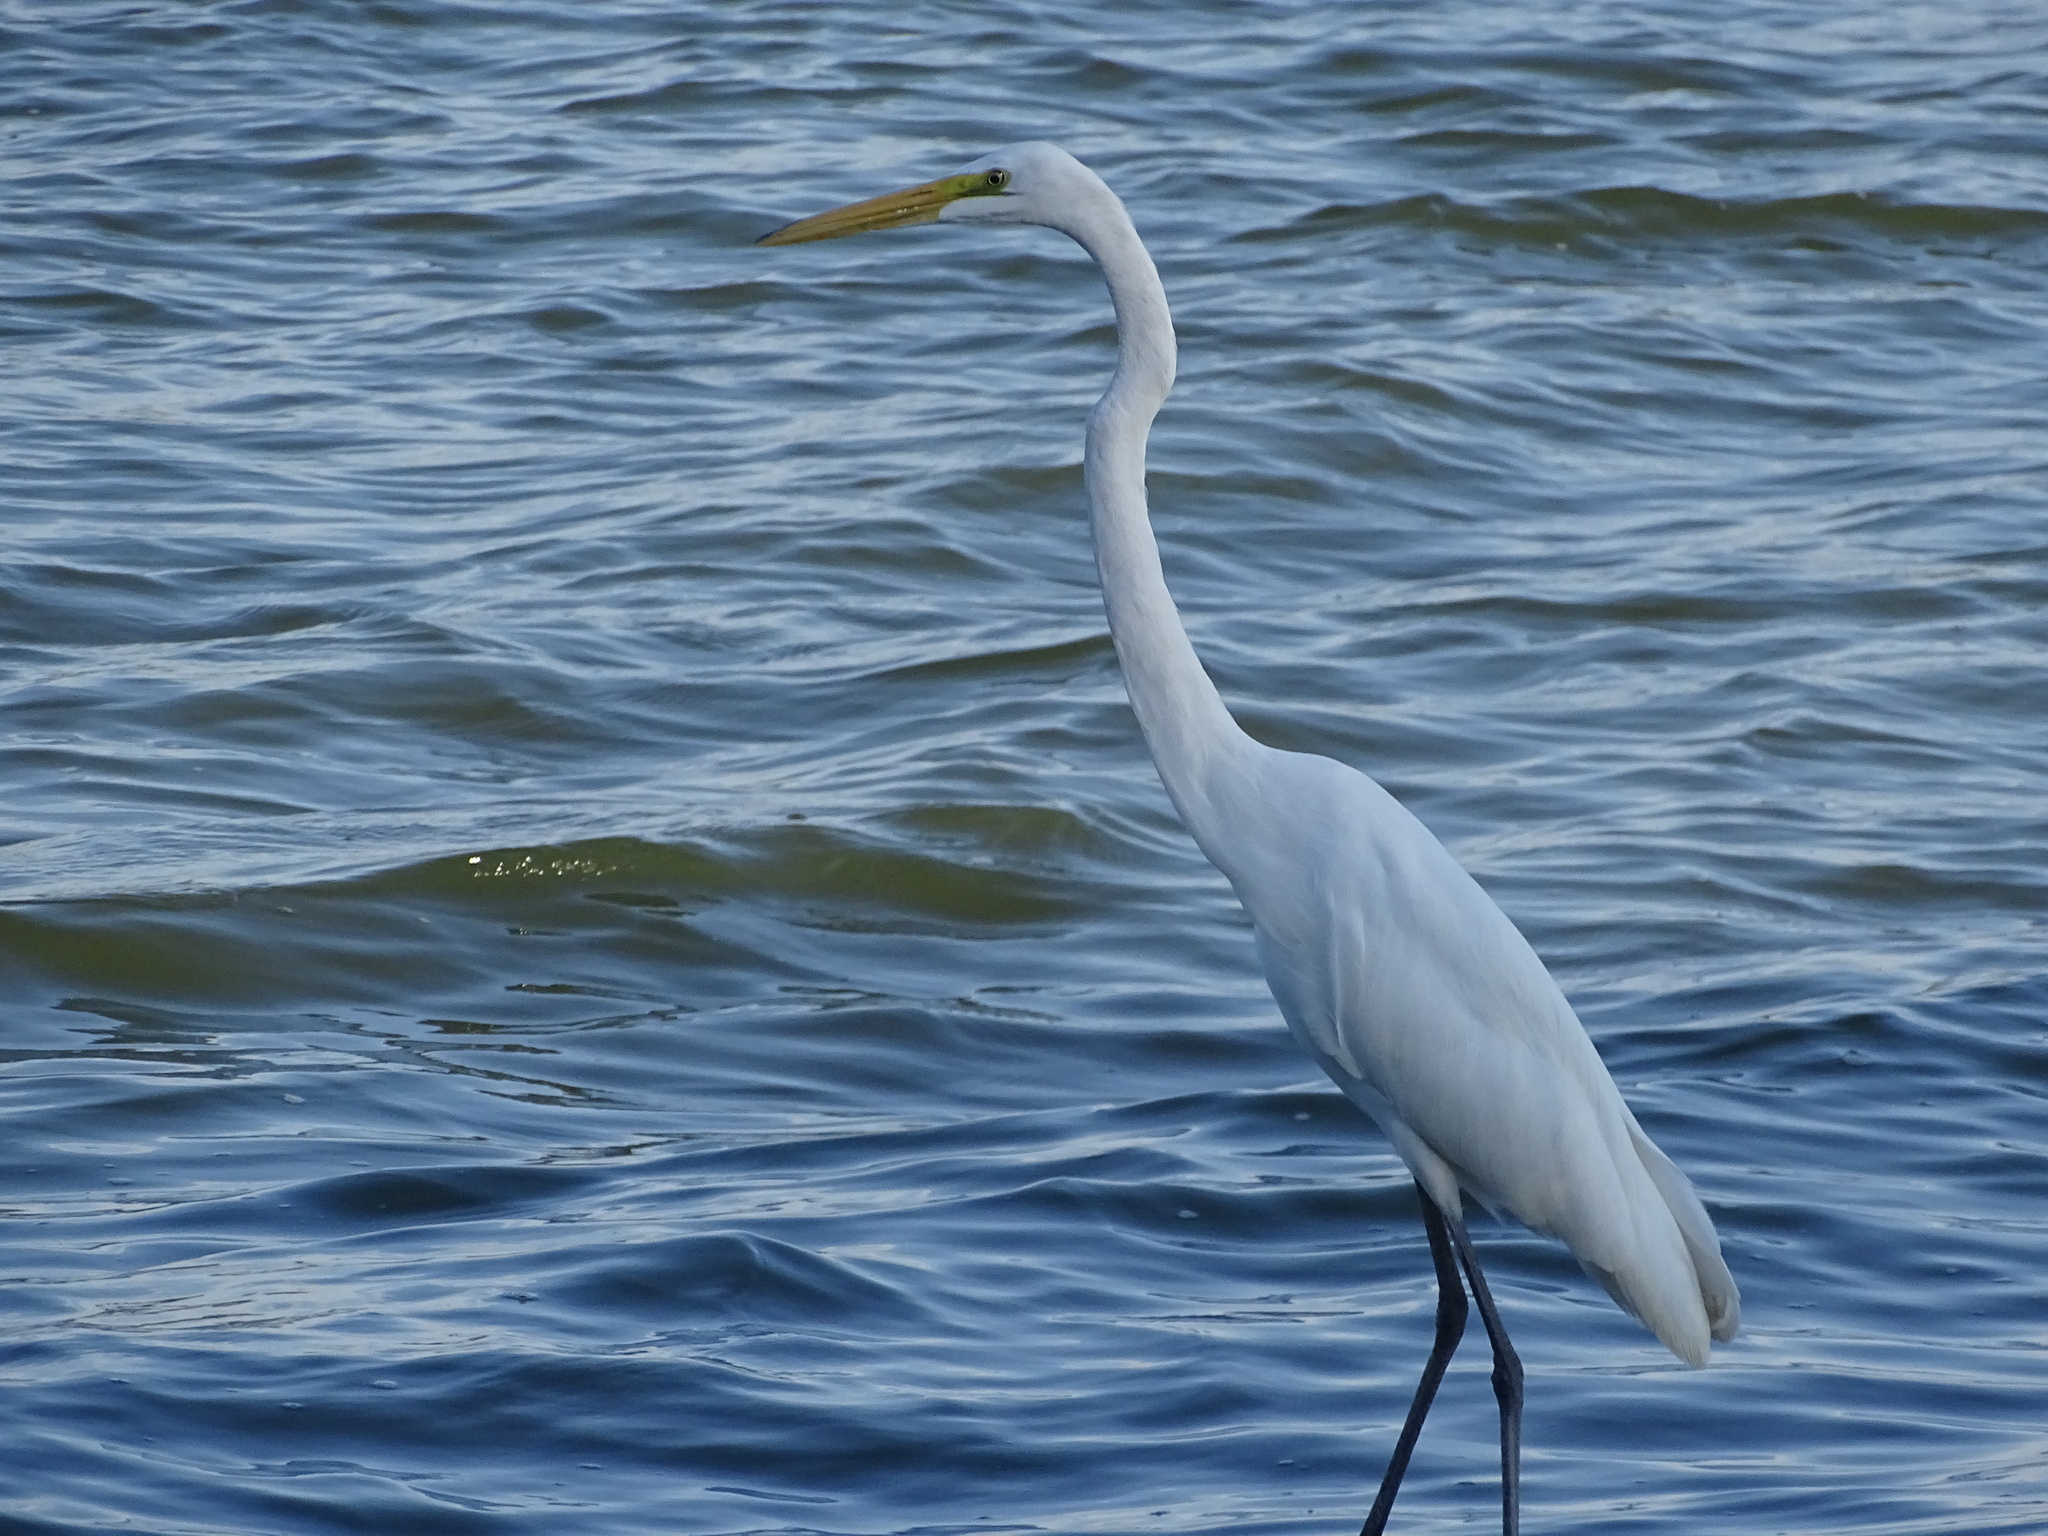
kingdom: Animalia
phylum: Chordata
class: Aves
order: Pelecaniformes
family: Ardeidae
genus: Ardea
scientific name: Ardea alba
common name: Great egret
